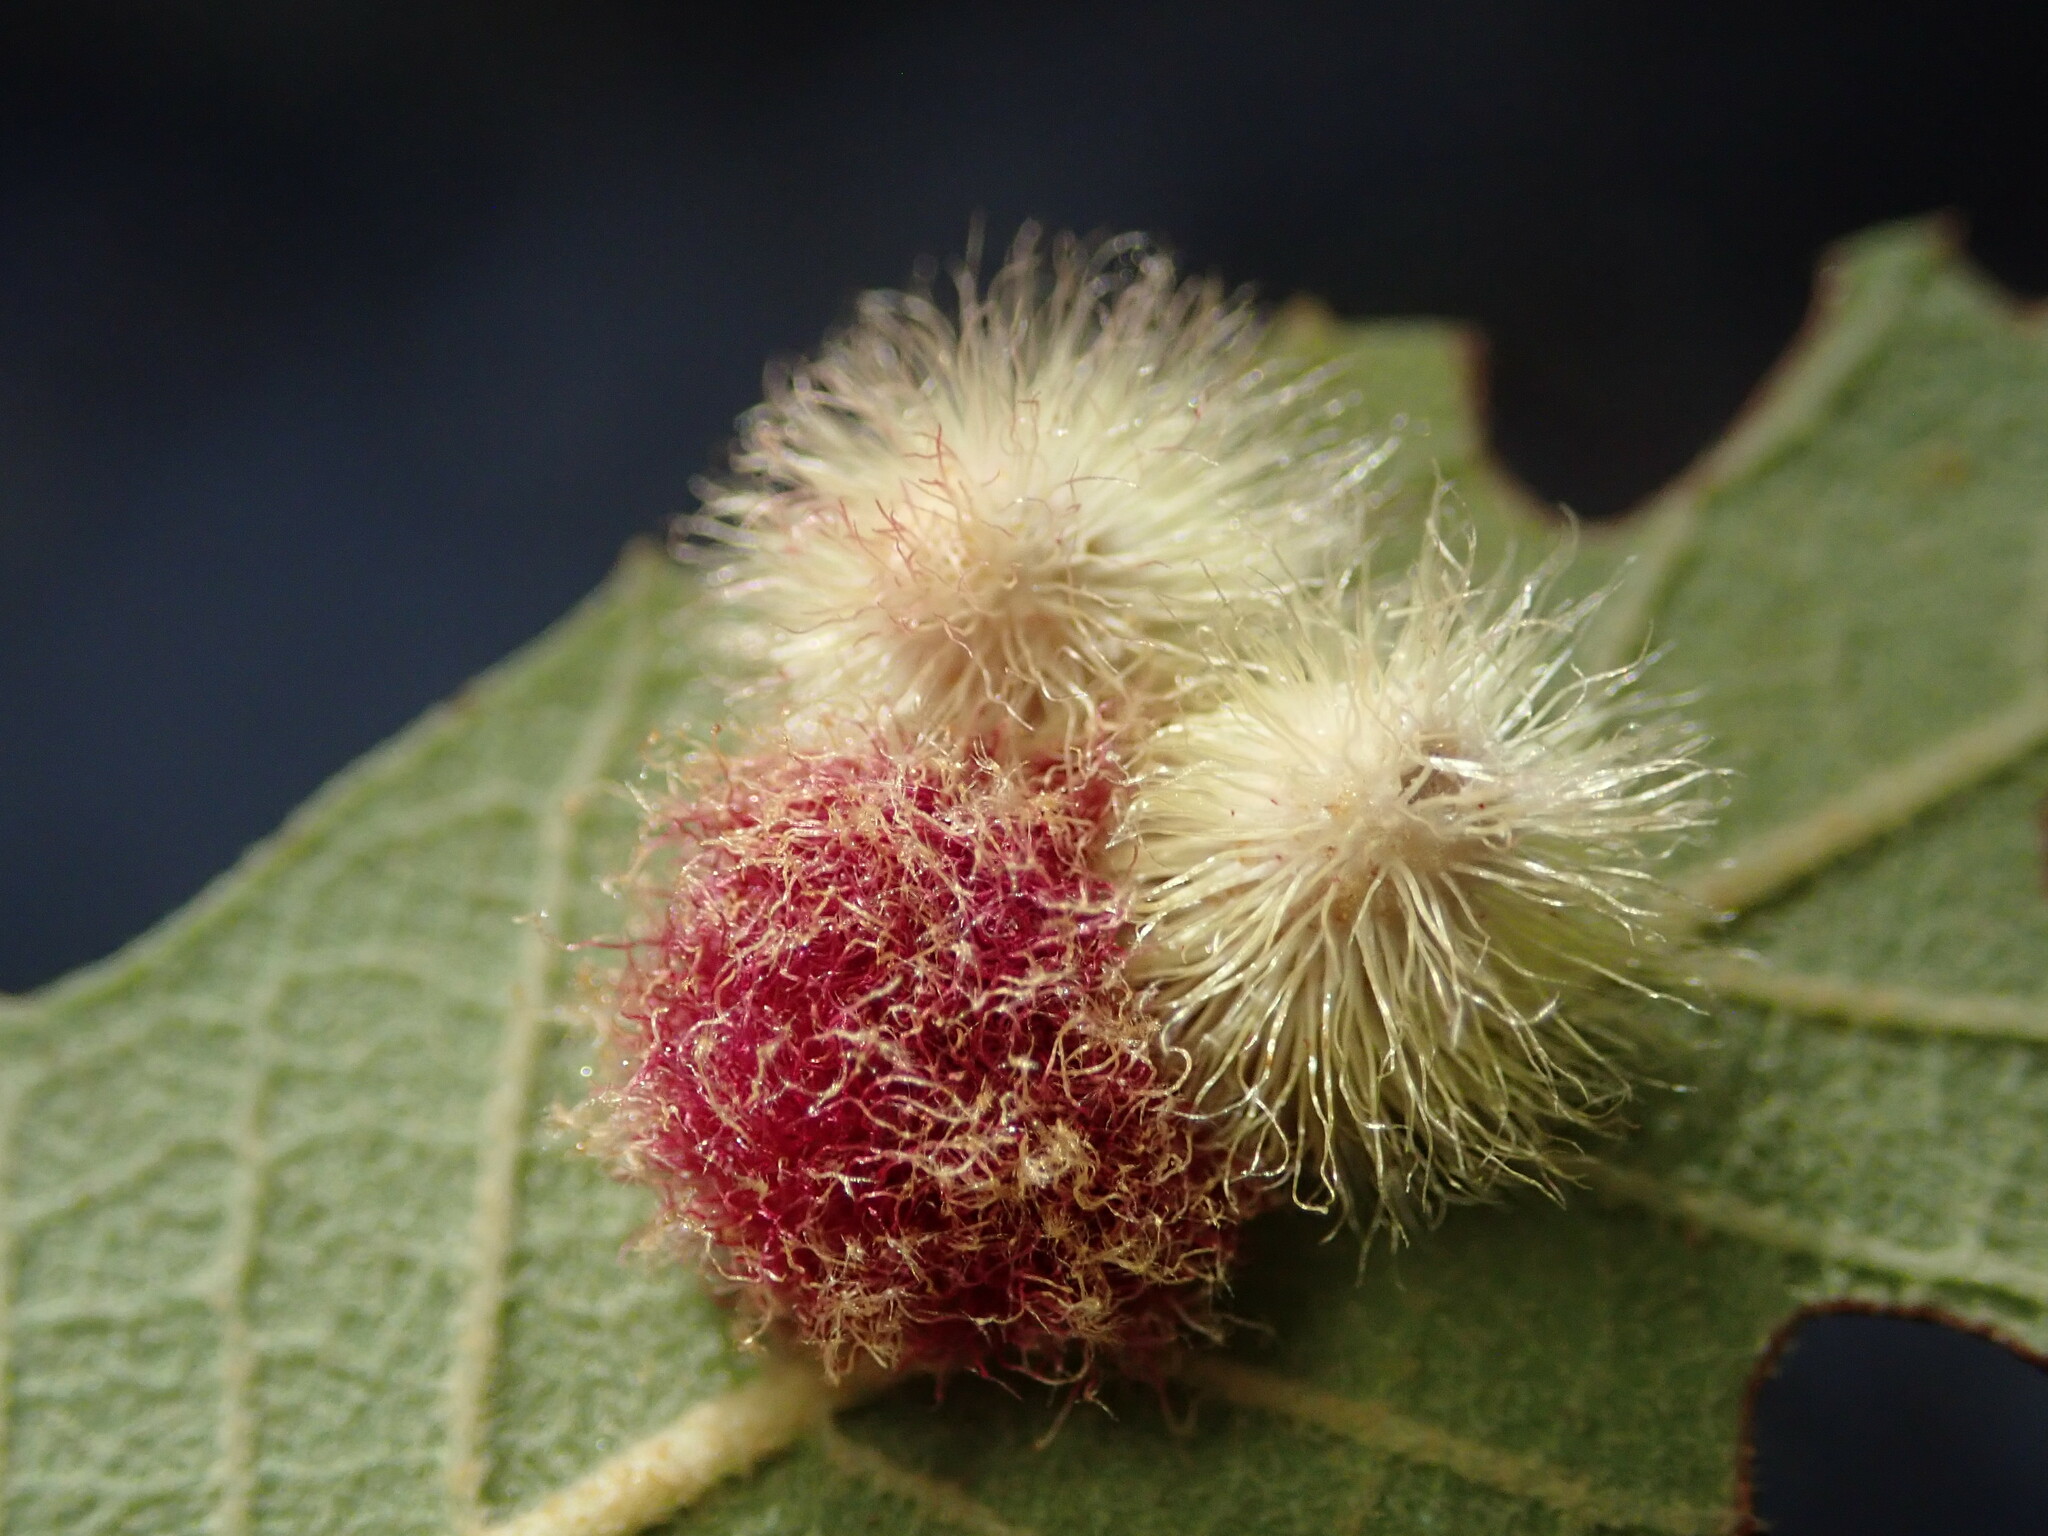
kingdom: Animalia
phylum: Arthropoda
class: Insecta
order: Hymenoptera
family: Cynipidae
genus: Cynips
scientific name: Cynips
